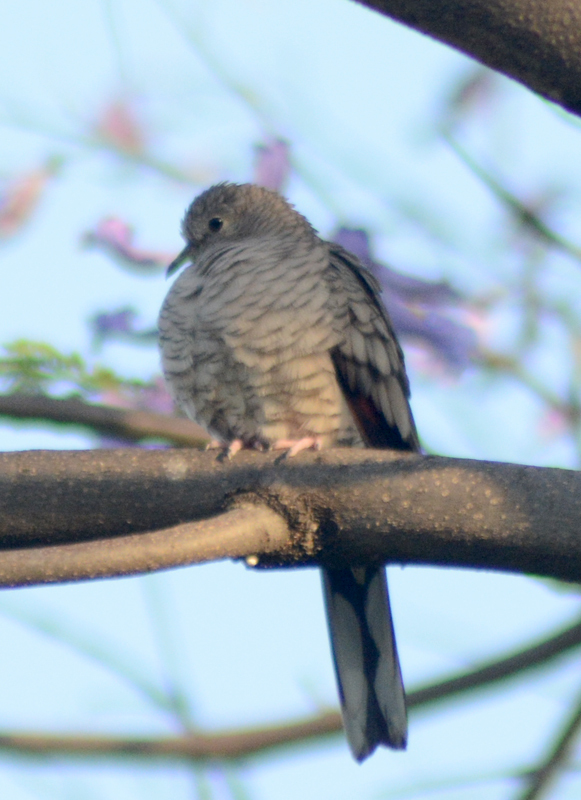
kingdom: Animalia
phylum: Chordata
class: Aves
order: Columbiformes
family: Columbidae
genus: Columbina
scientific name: Columbina inca
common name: Inca dove
